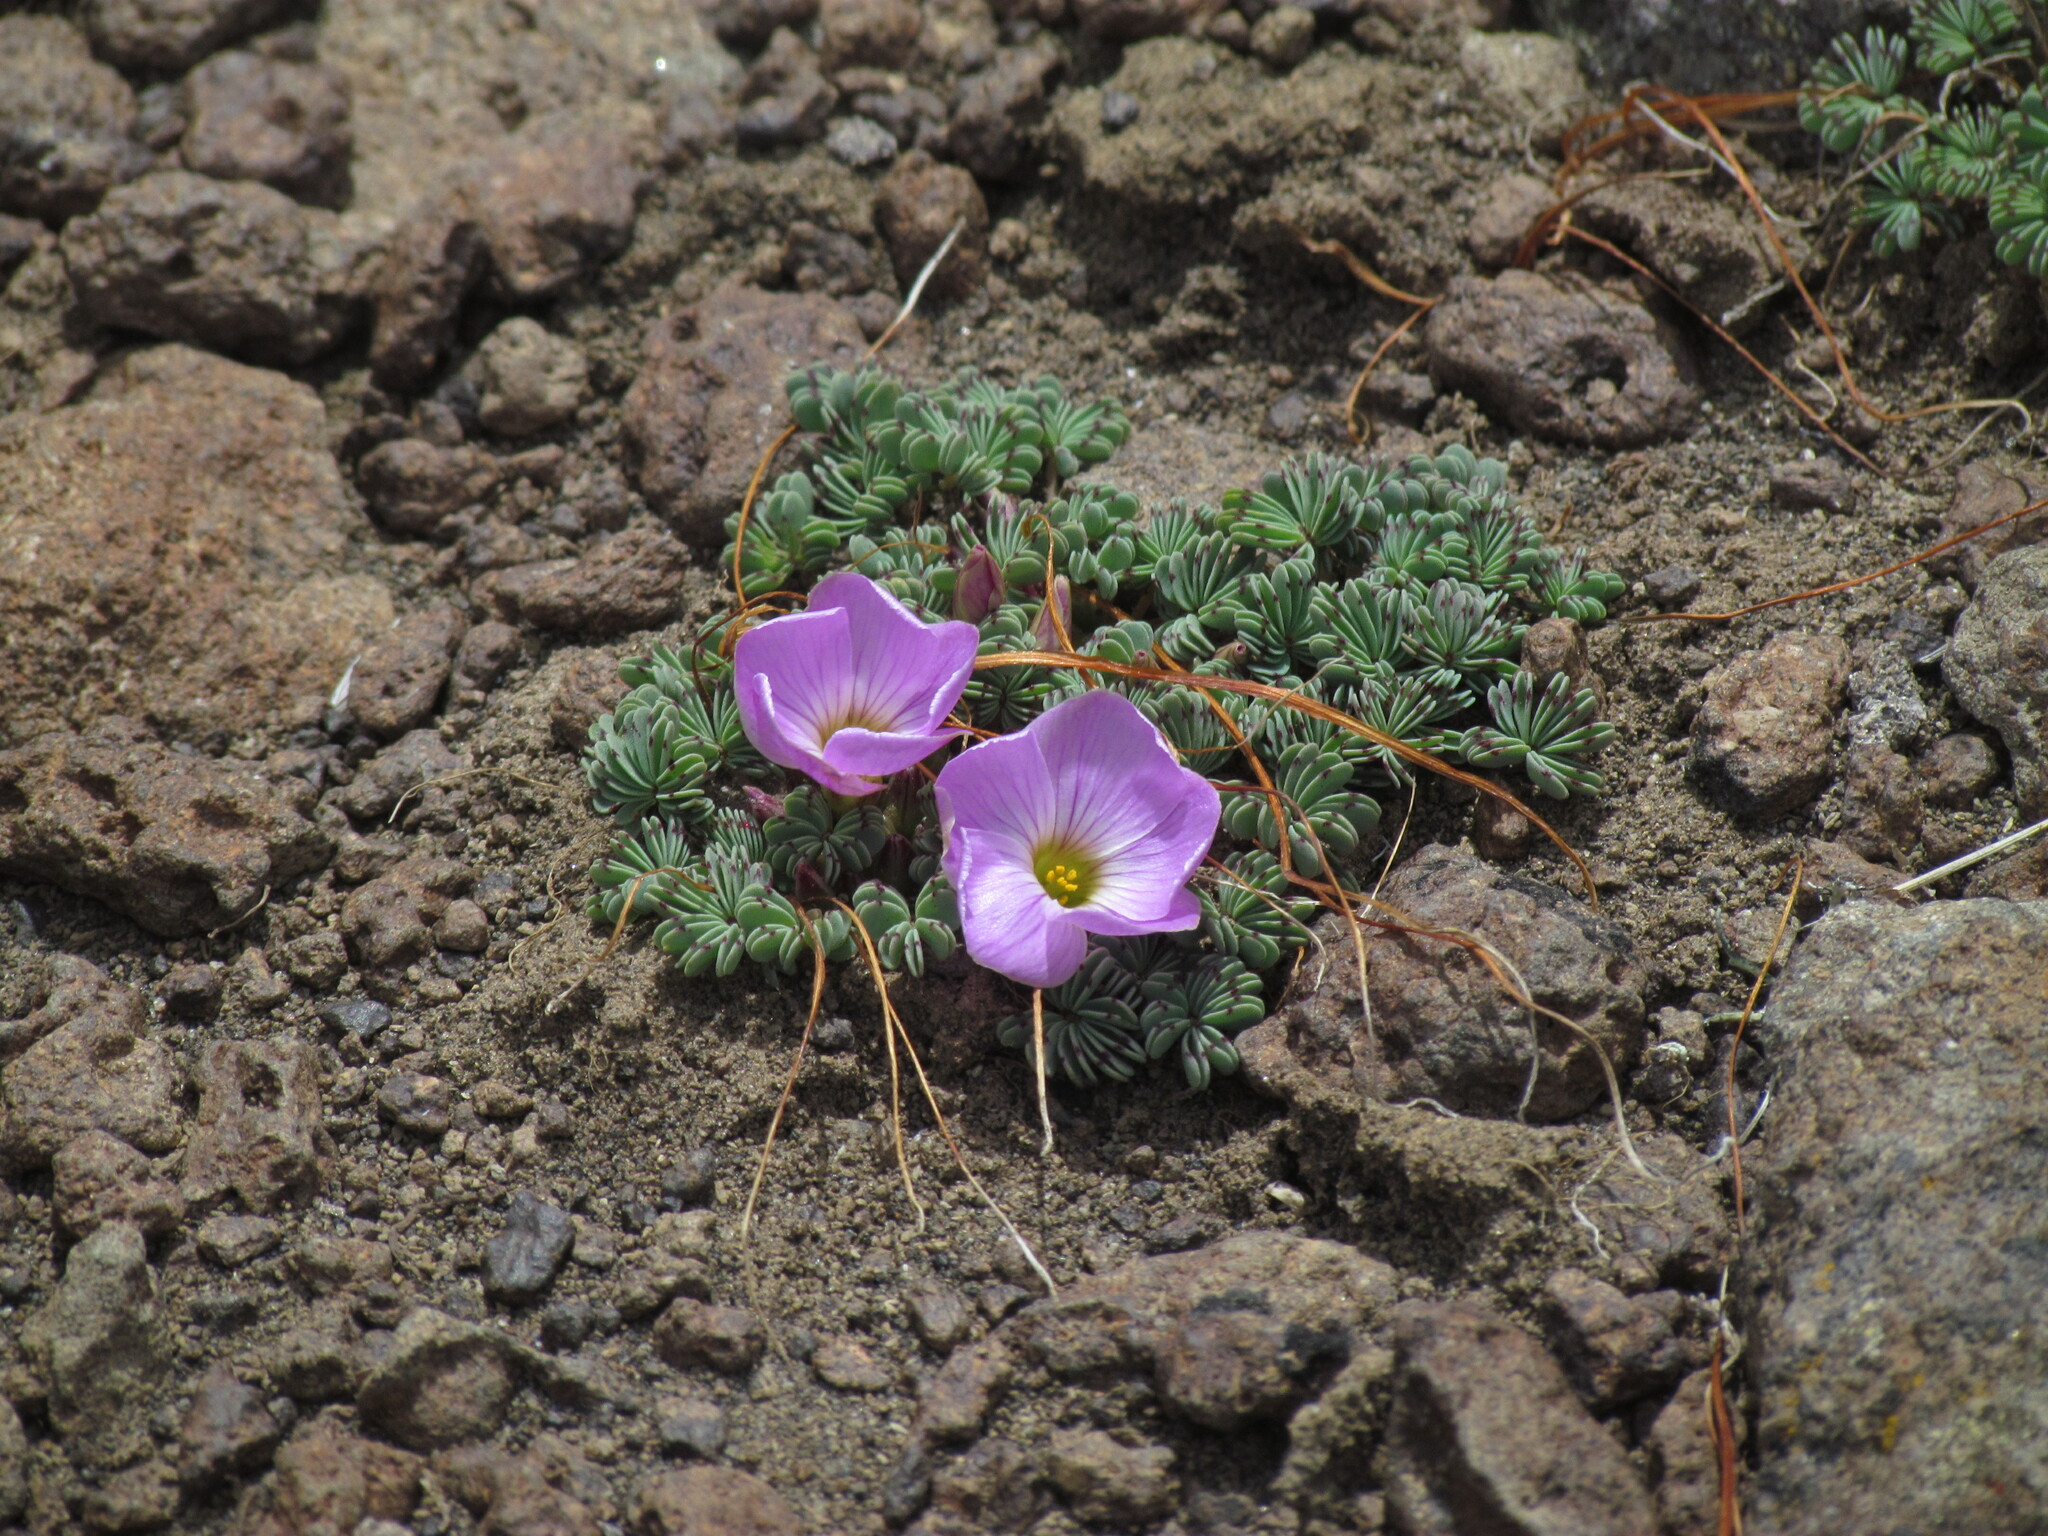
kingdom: Plantae
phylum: Tracheophyta
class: Magnoliopsida
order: Oxalidales
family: Oxalidaceae
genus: Oxalis
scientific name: Oxalis adenophylla
